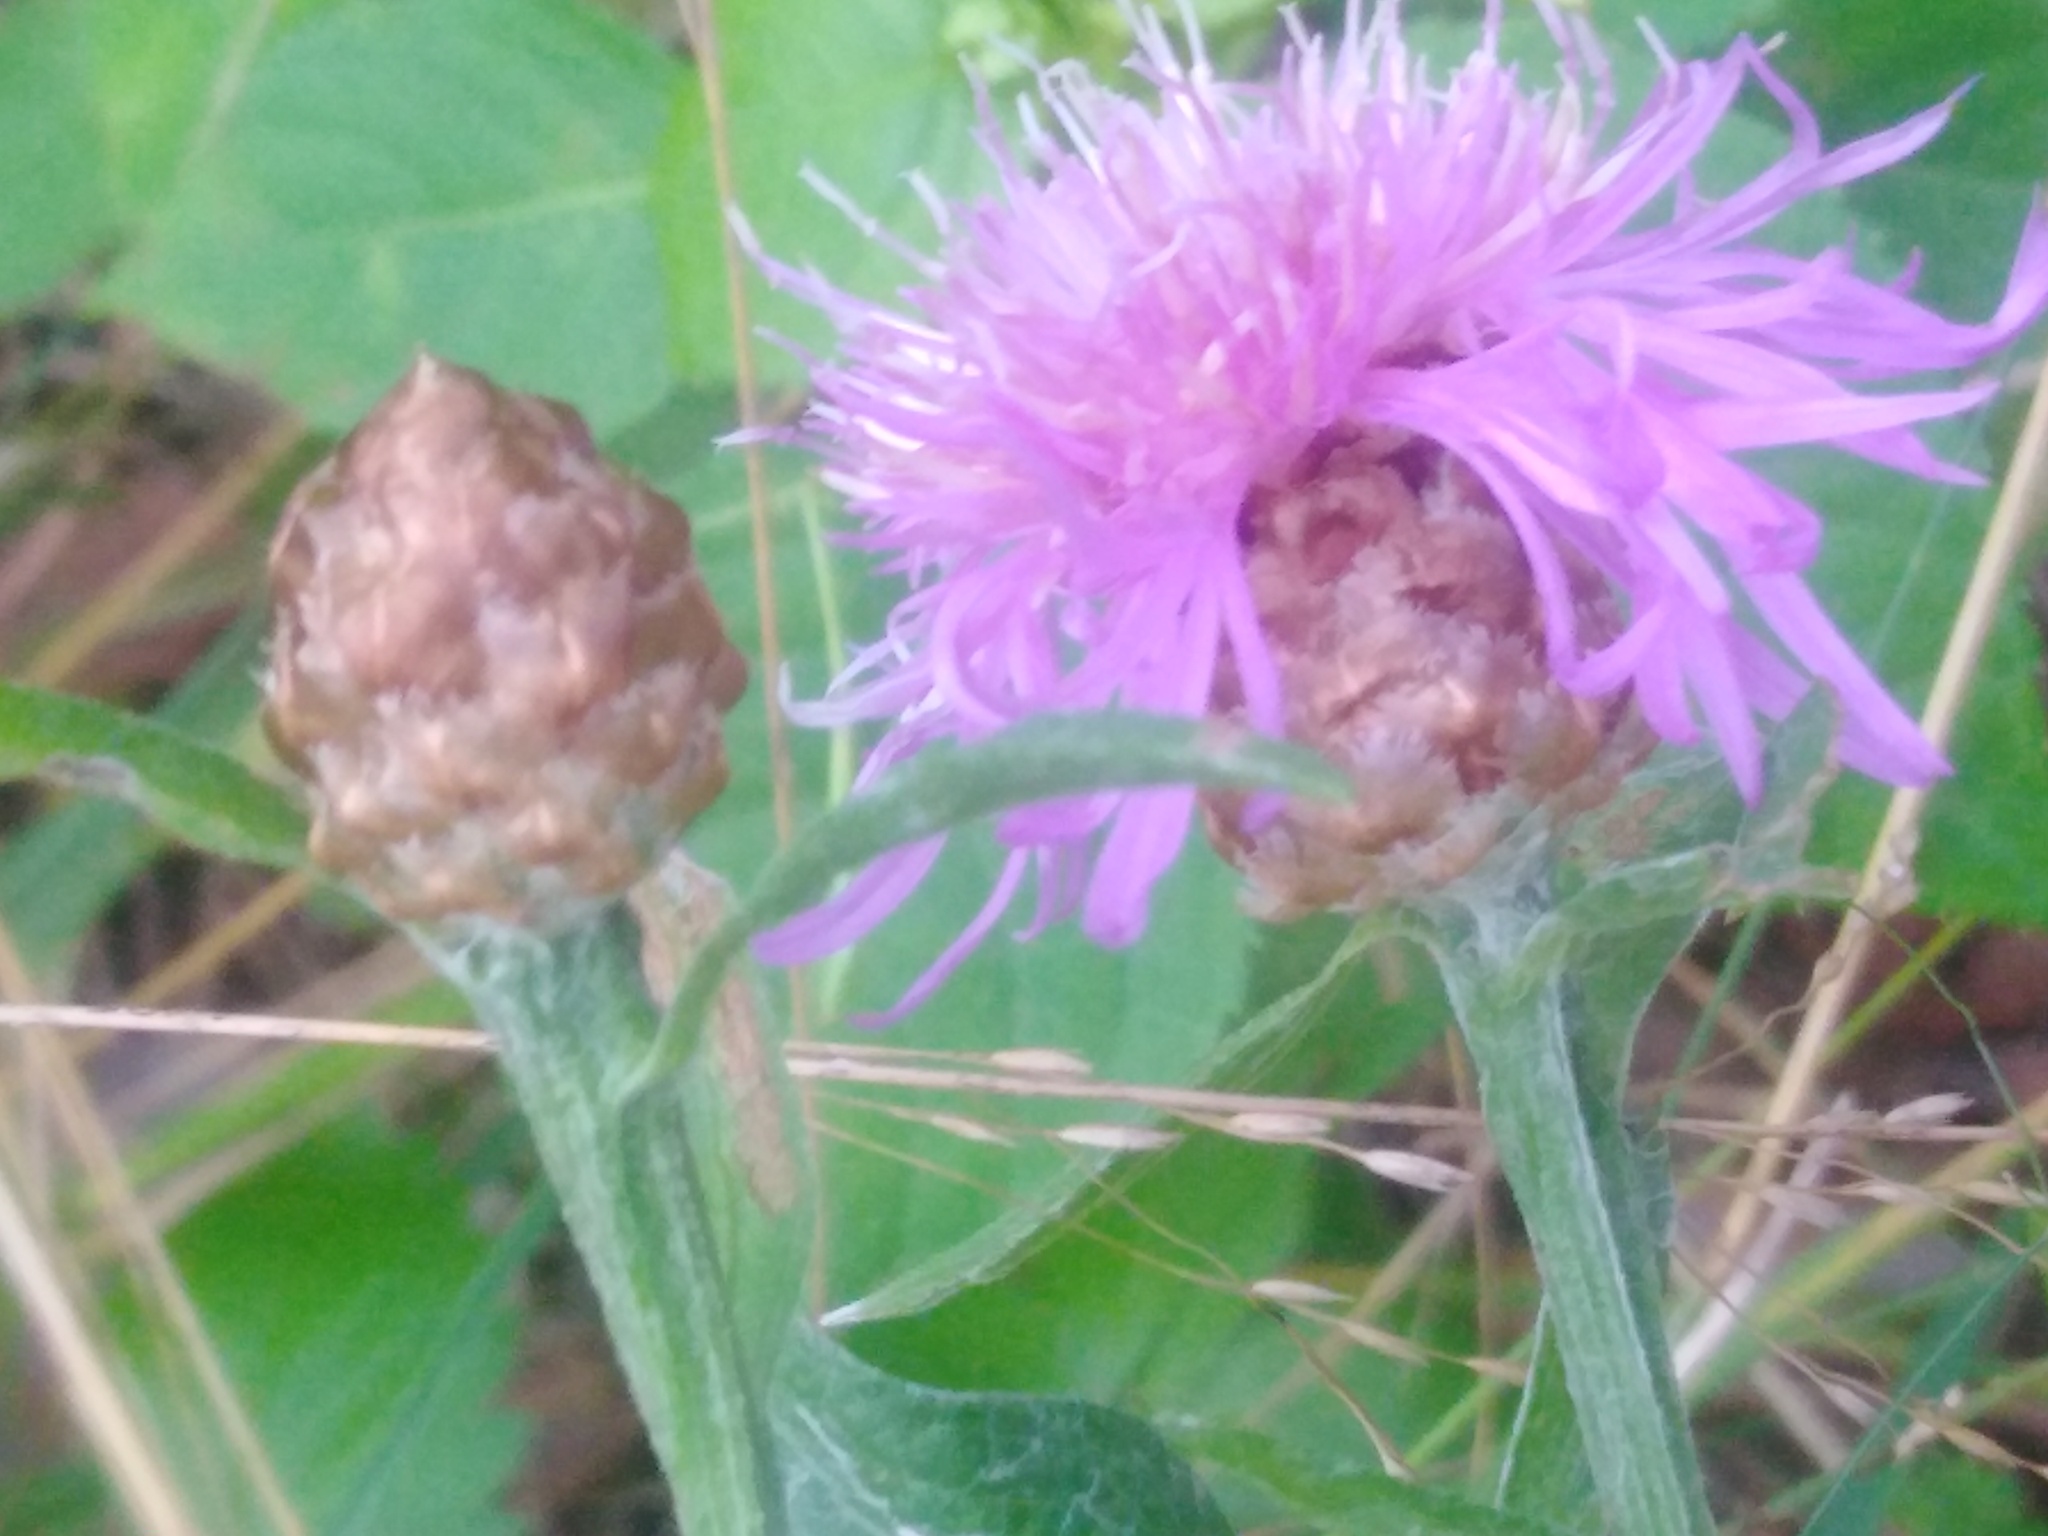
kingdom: Plantae
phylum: Tracheophyta
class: Magnoliopsida
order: Asterales
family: Asteraceae
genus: Centaurea
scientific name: Centaurea jacea
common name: Brown knapweed
